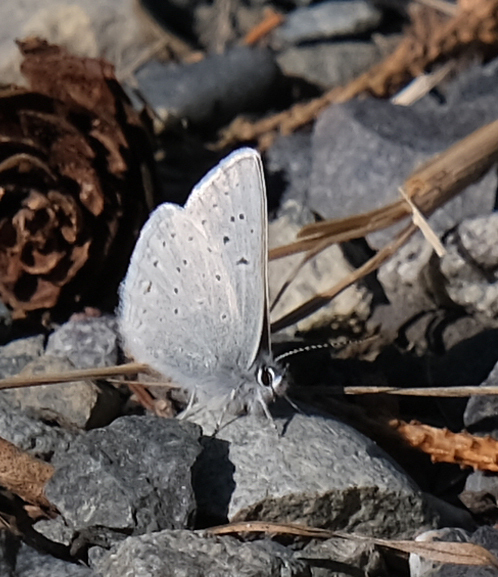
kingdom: Animalia
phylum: Arthropoda
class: Insecta
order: Lepidoptera
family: Lycaenidae
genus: Icaricia
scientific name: Icaricia saepiolus
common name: Greenish blue
